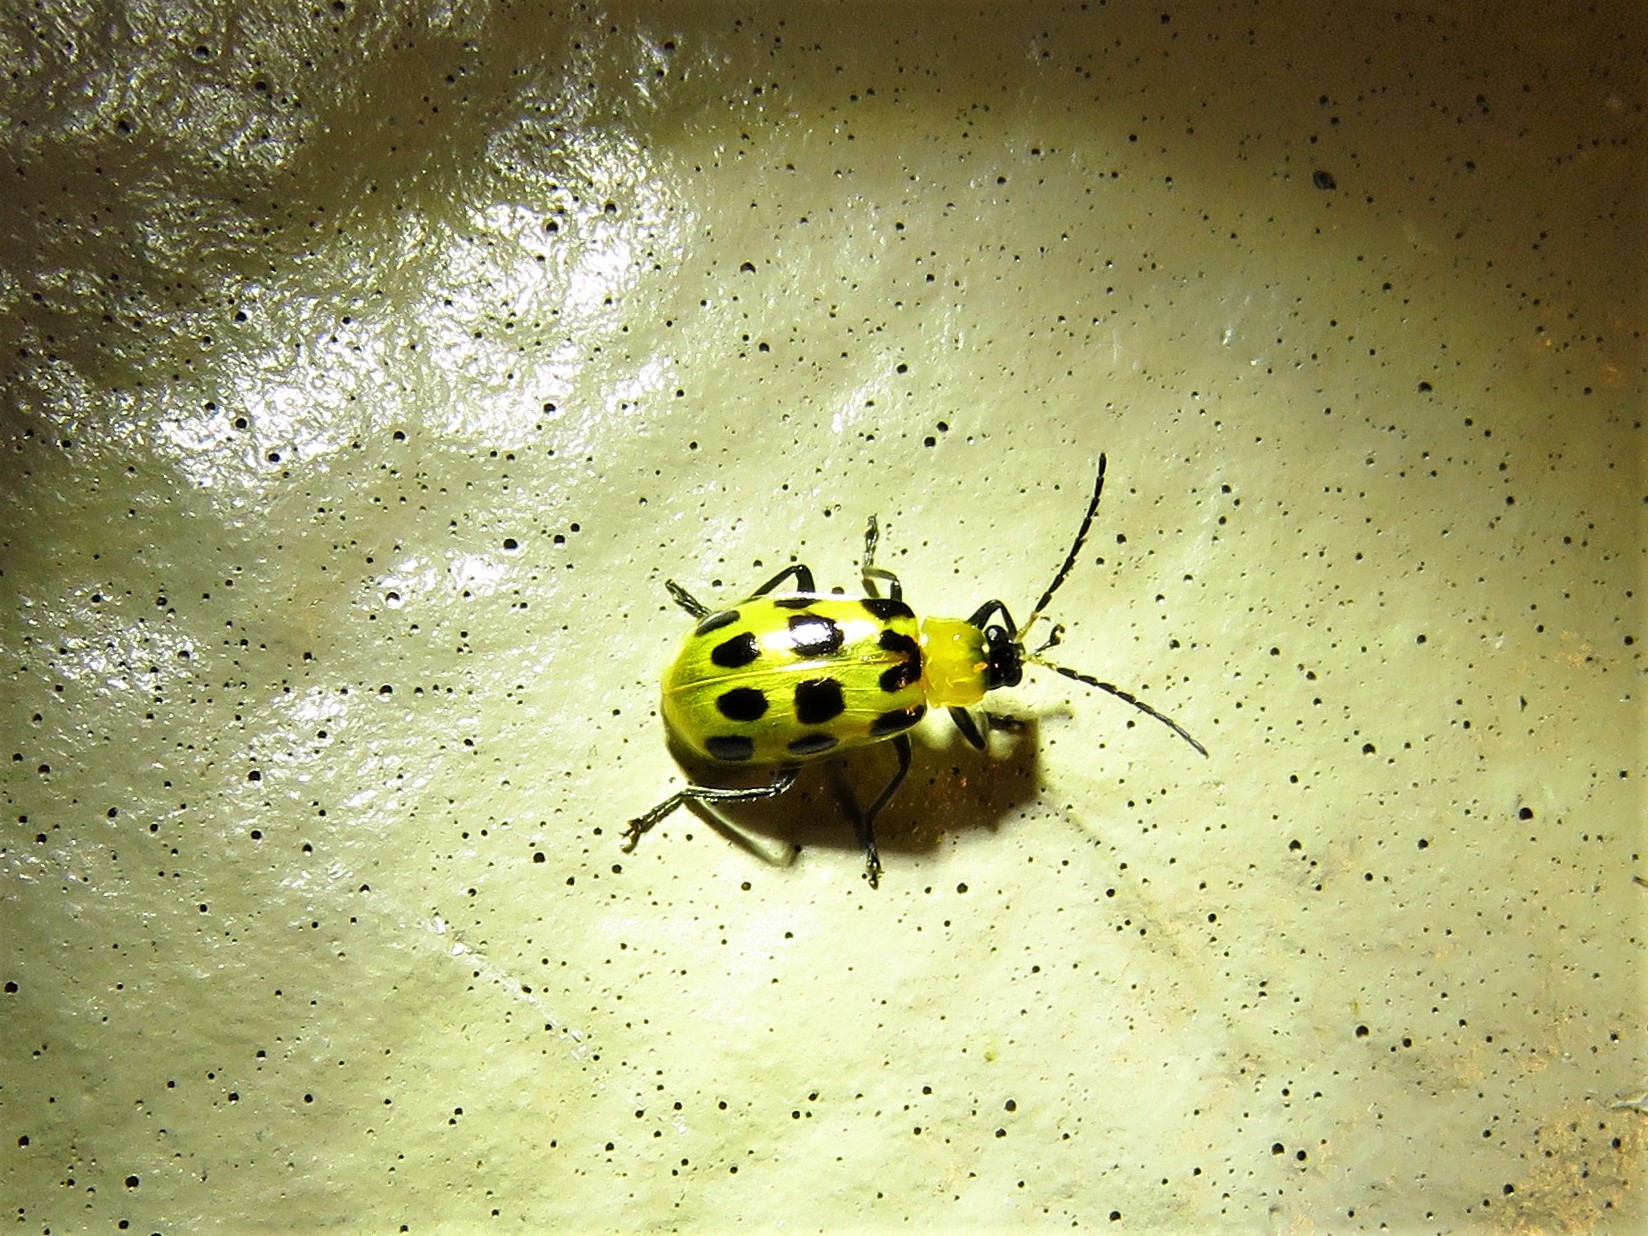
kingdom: Animalia
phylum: Arthropoda
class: Insecta
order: Coleoptera
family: Chrysomelidae
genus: Diabrotica
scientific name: Diabrotica undecimpunctata
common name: Spotted cucumber beetle
